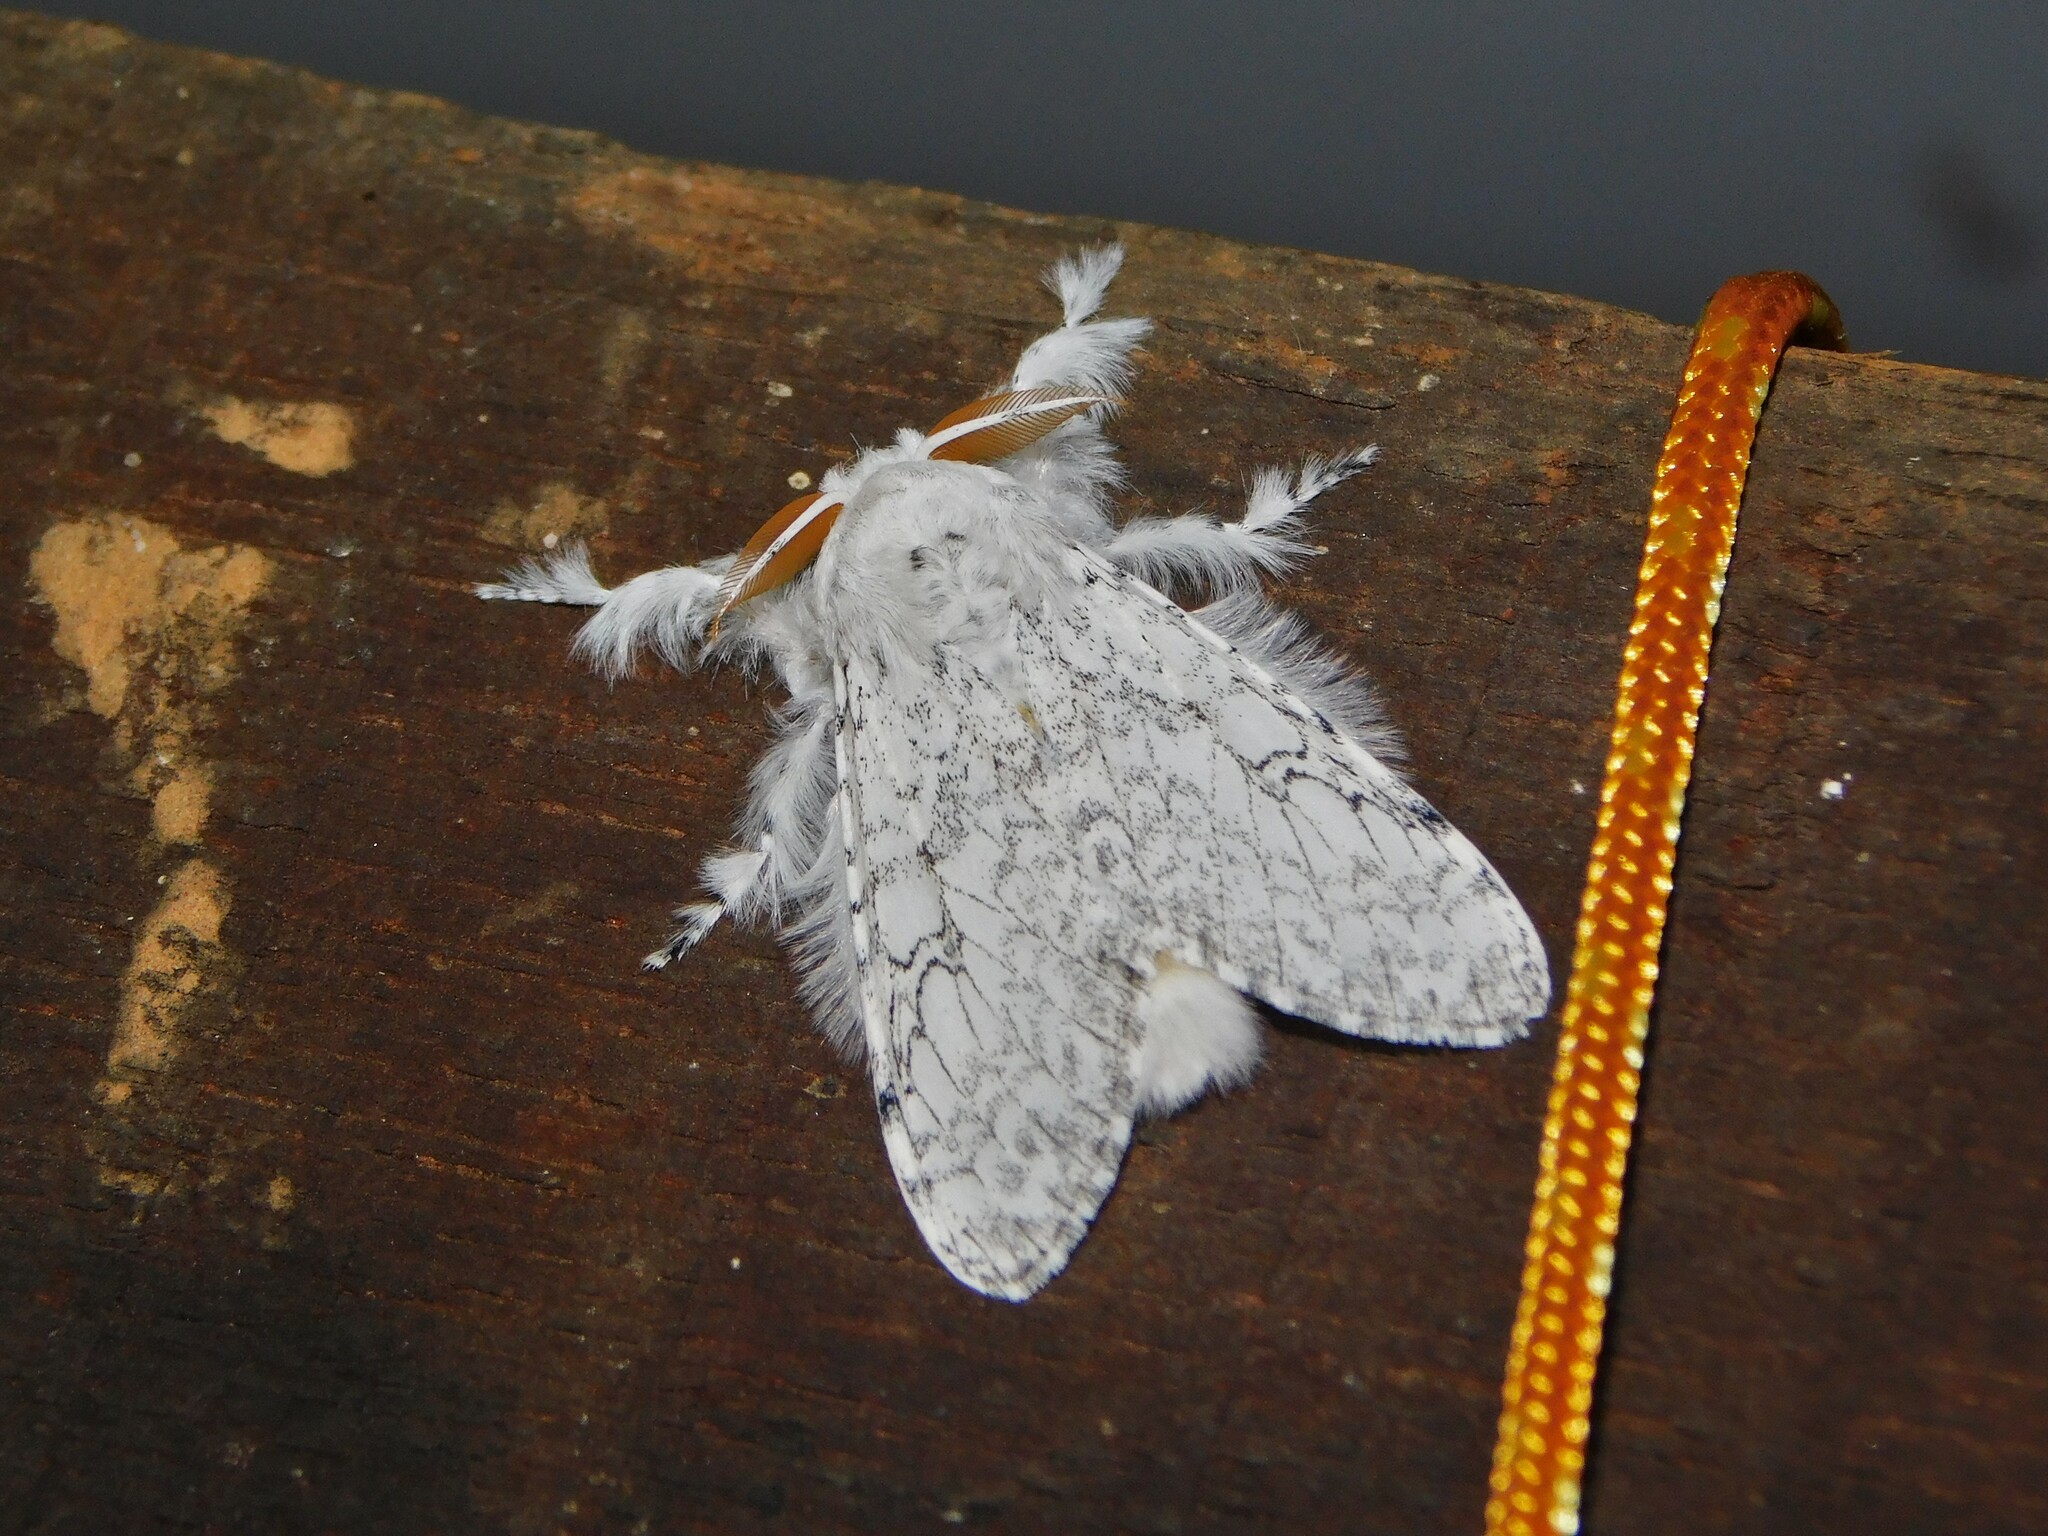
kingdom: Animalia
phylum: Arthropoda
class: Insecta
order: Lepidoptera
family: Erebidae
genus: Dasychira
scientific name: Dasychira georgiana
